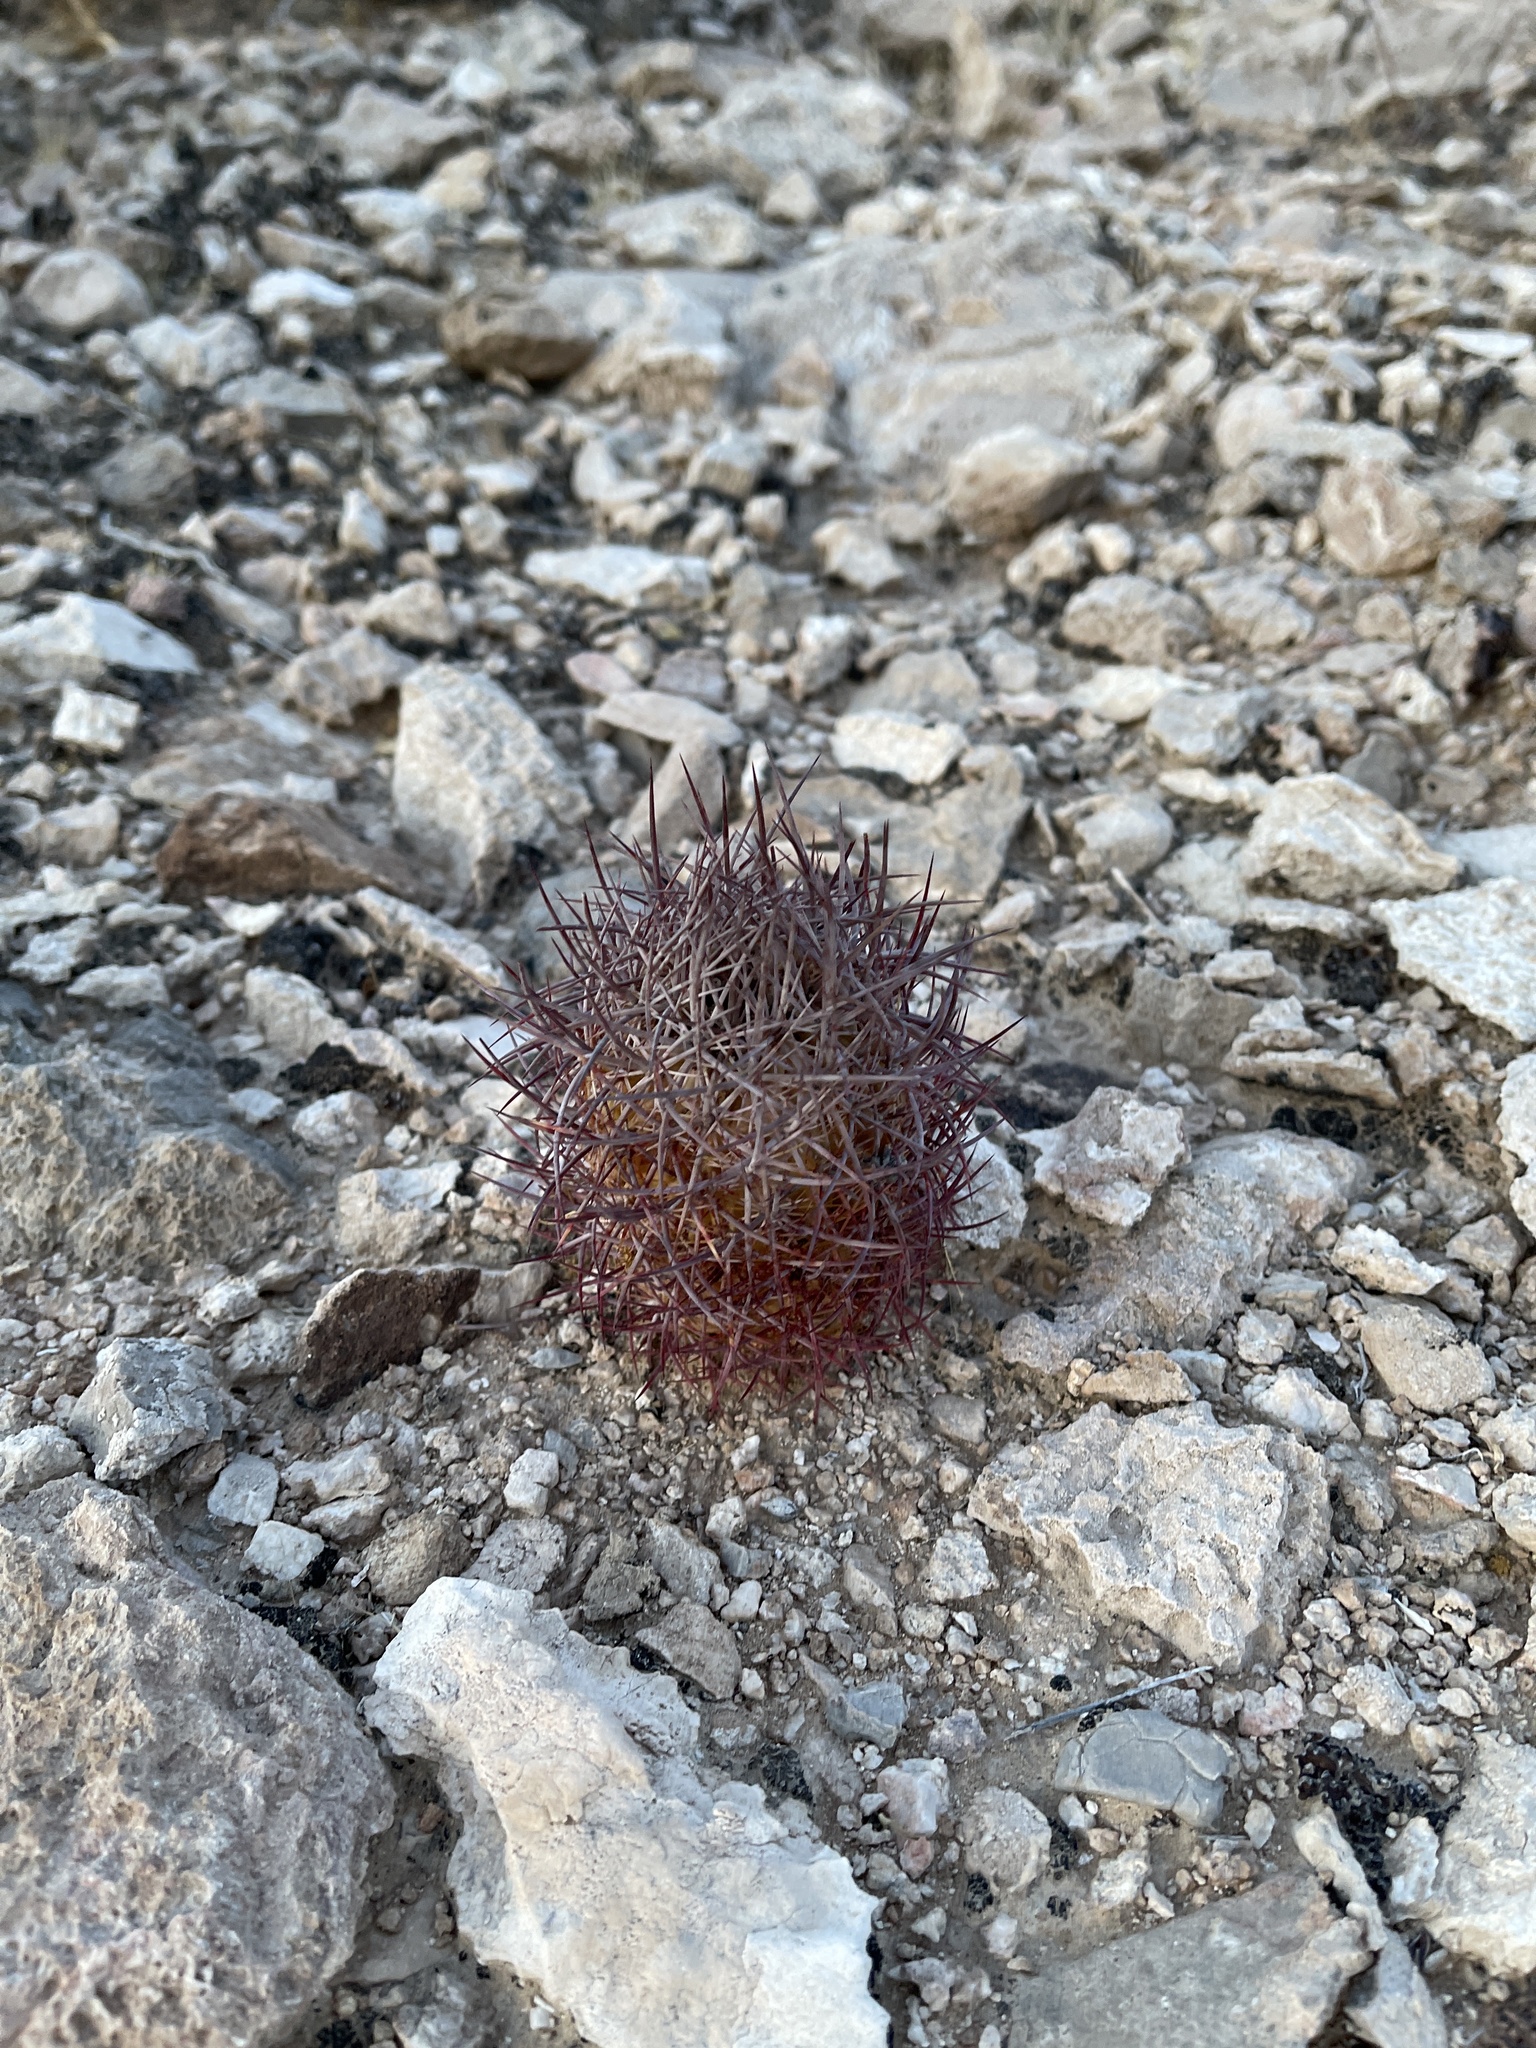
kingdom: Plantae
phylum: Tracheophyta
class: Magnoliopsida
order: Caryophyllales
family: Cactaceae
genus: Sclerocactus
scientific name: Sclerocactus johnsonii
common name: Eight-spine fishhook cactus
